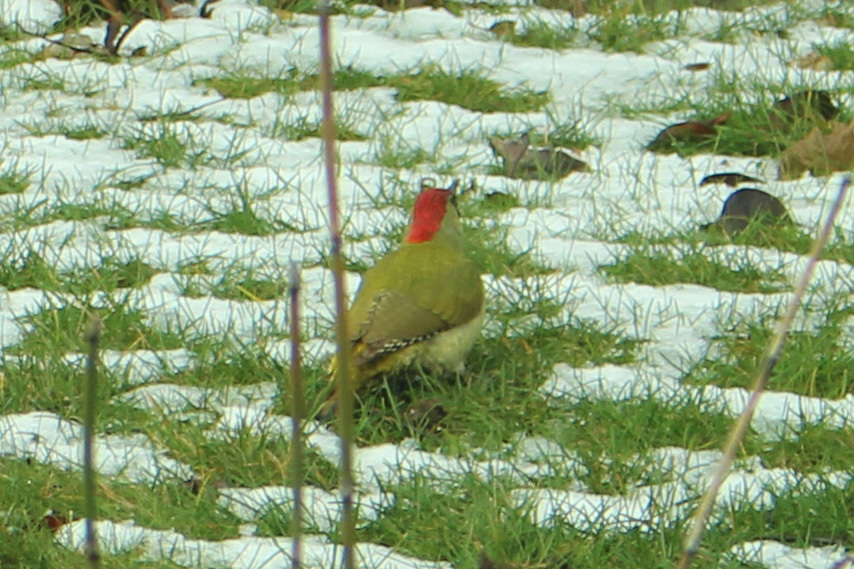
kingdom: Animalia
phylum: Chordata
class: Aves
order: Piciformes
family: Picidae
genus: Picus
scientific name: Picus viridis
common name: European green woodpecker
